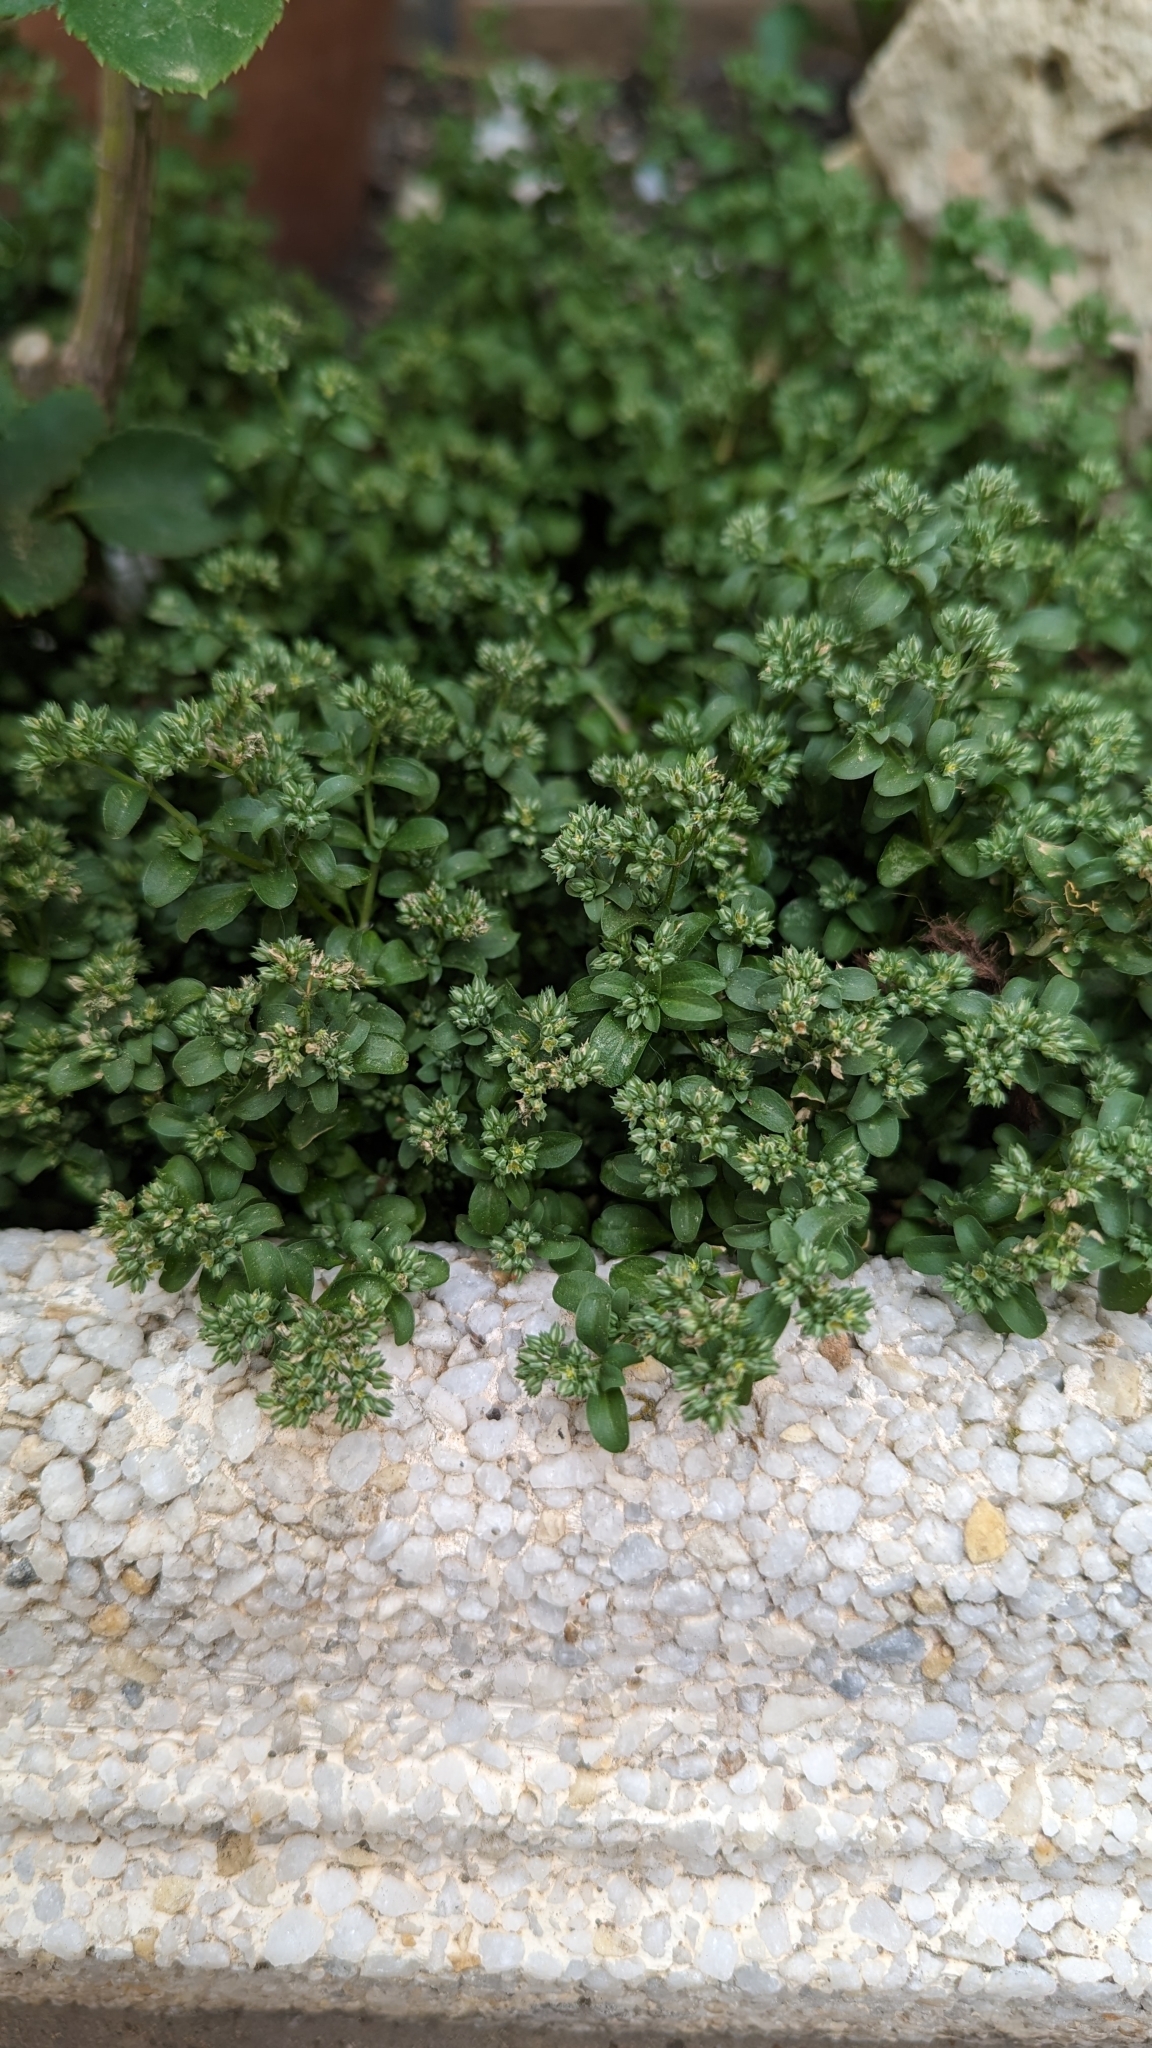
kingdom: Plantae
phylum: Tracheophyta
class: Magnoliopsida
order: Caryophyllales
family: Caryophyllaceae
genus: Polycarpon
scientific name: Polycarpon tetraphyllum
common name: Four-leaved all-seed
